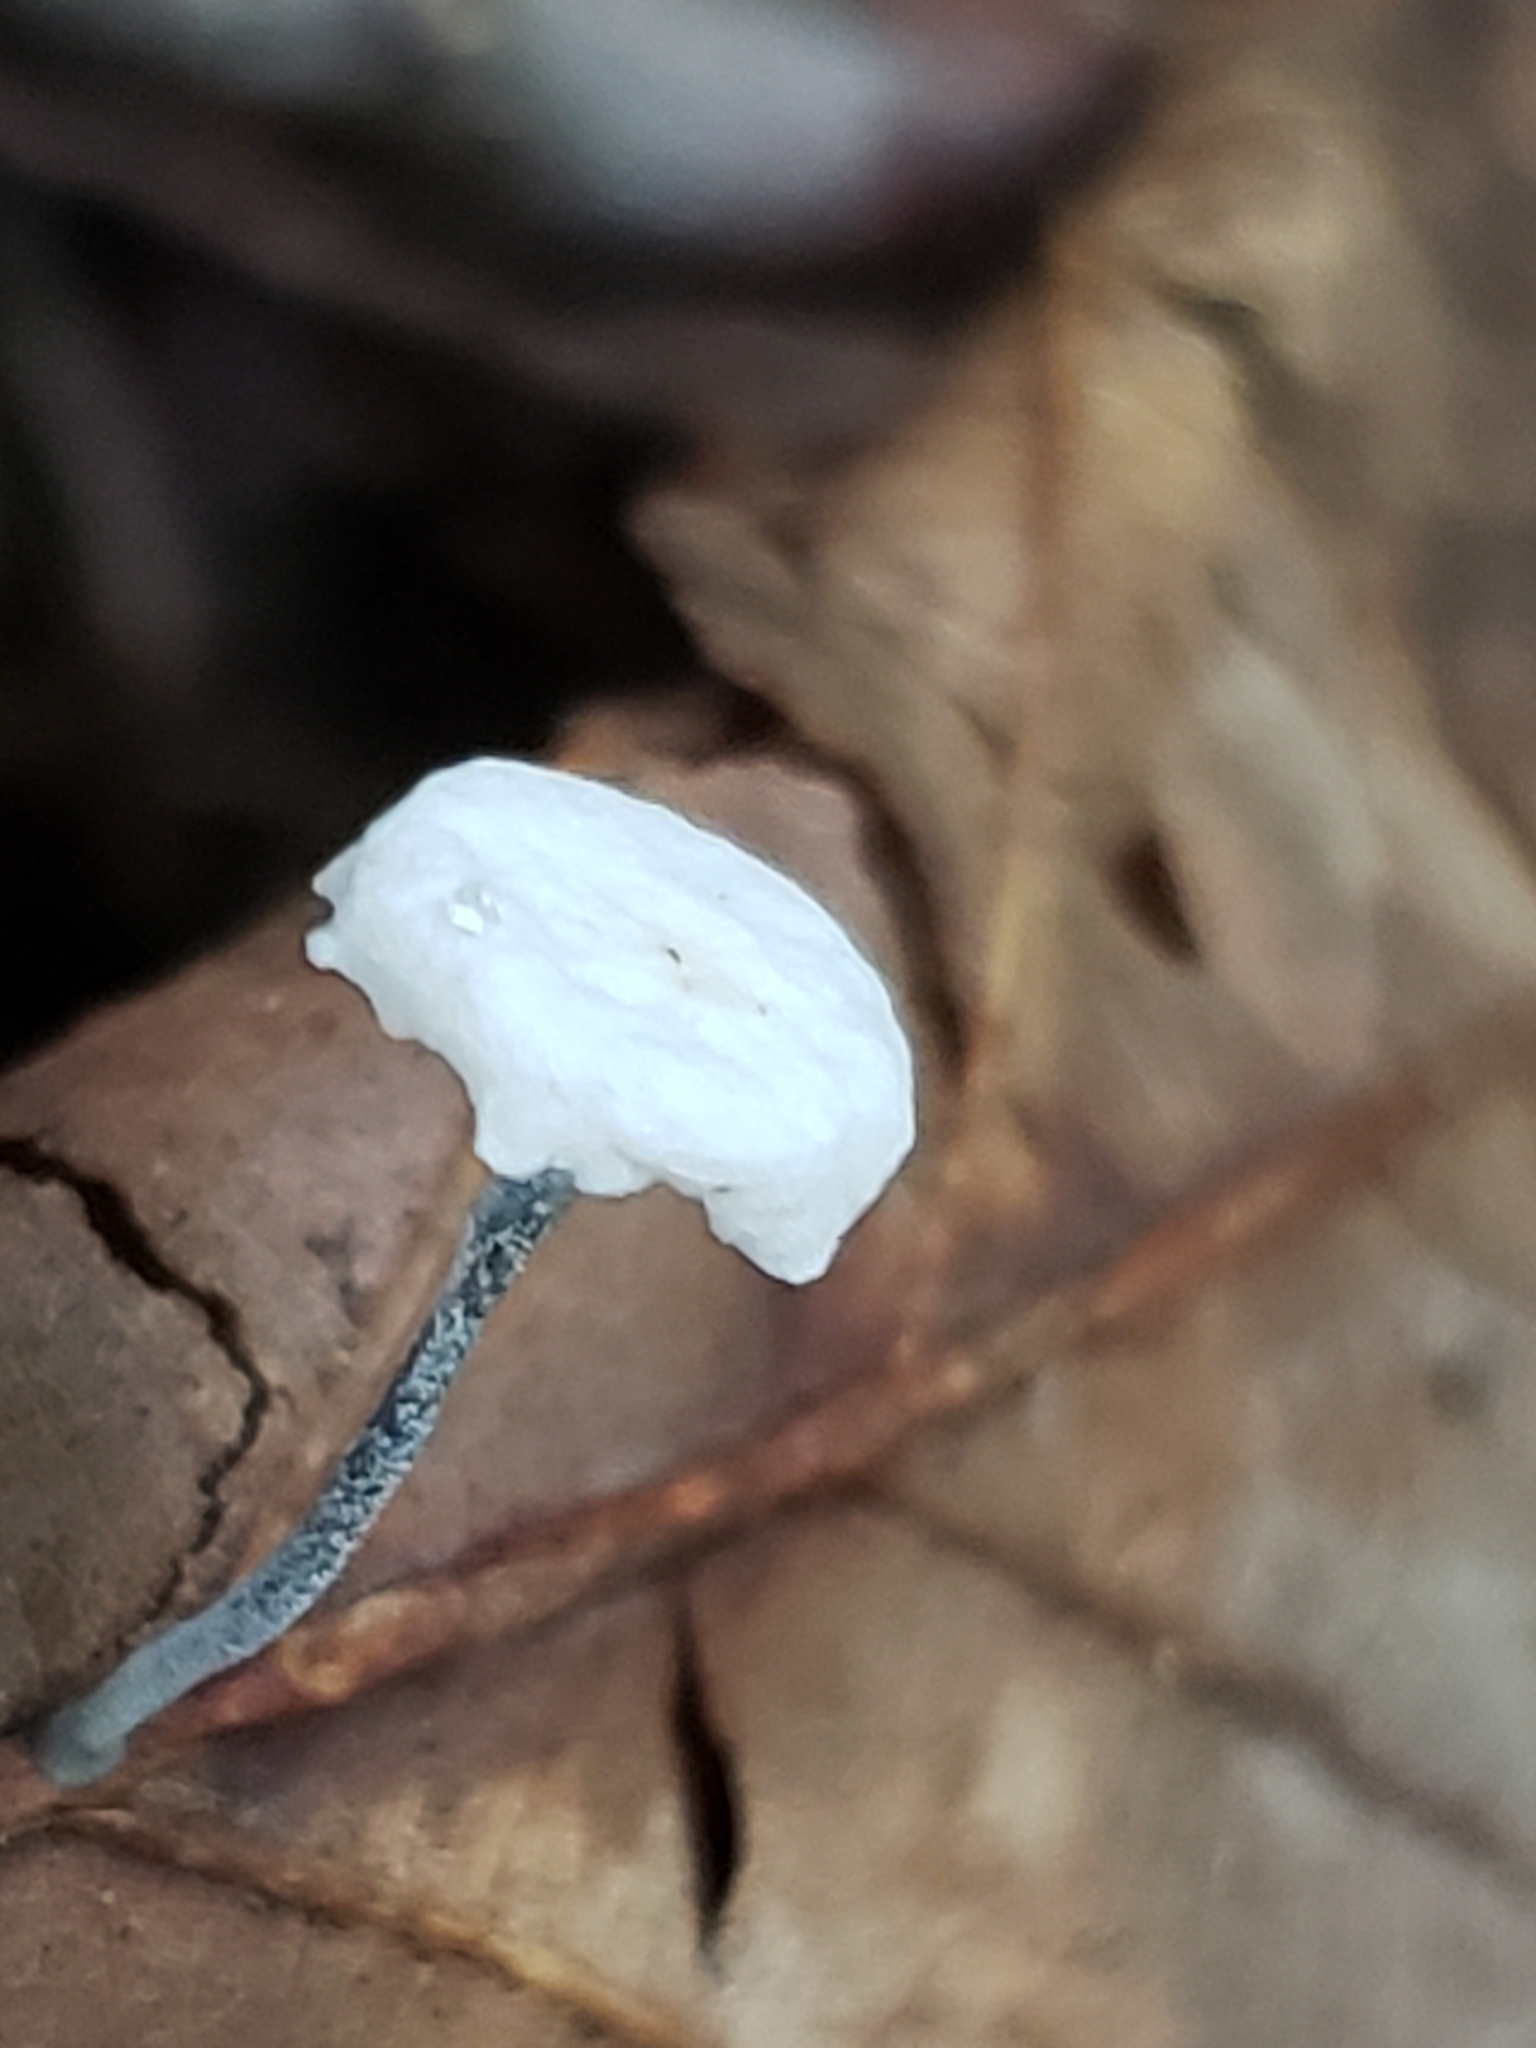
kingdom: Fungi
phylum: Basidiomycota
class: Agaricomycetes
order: Agaricales
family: Marasmiaceae
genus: Tetrapyrgos
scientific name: Tetrapyrgos nigripes
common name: Black-stalked marasmius
